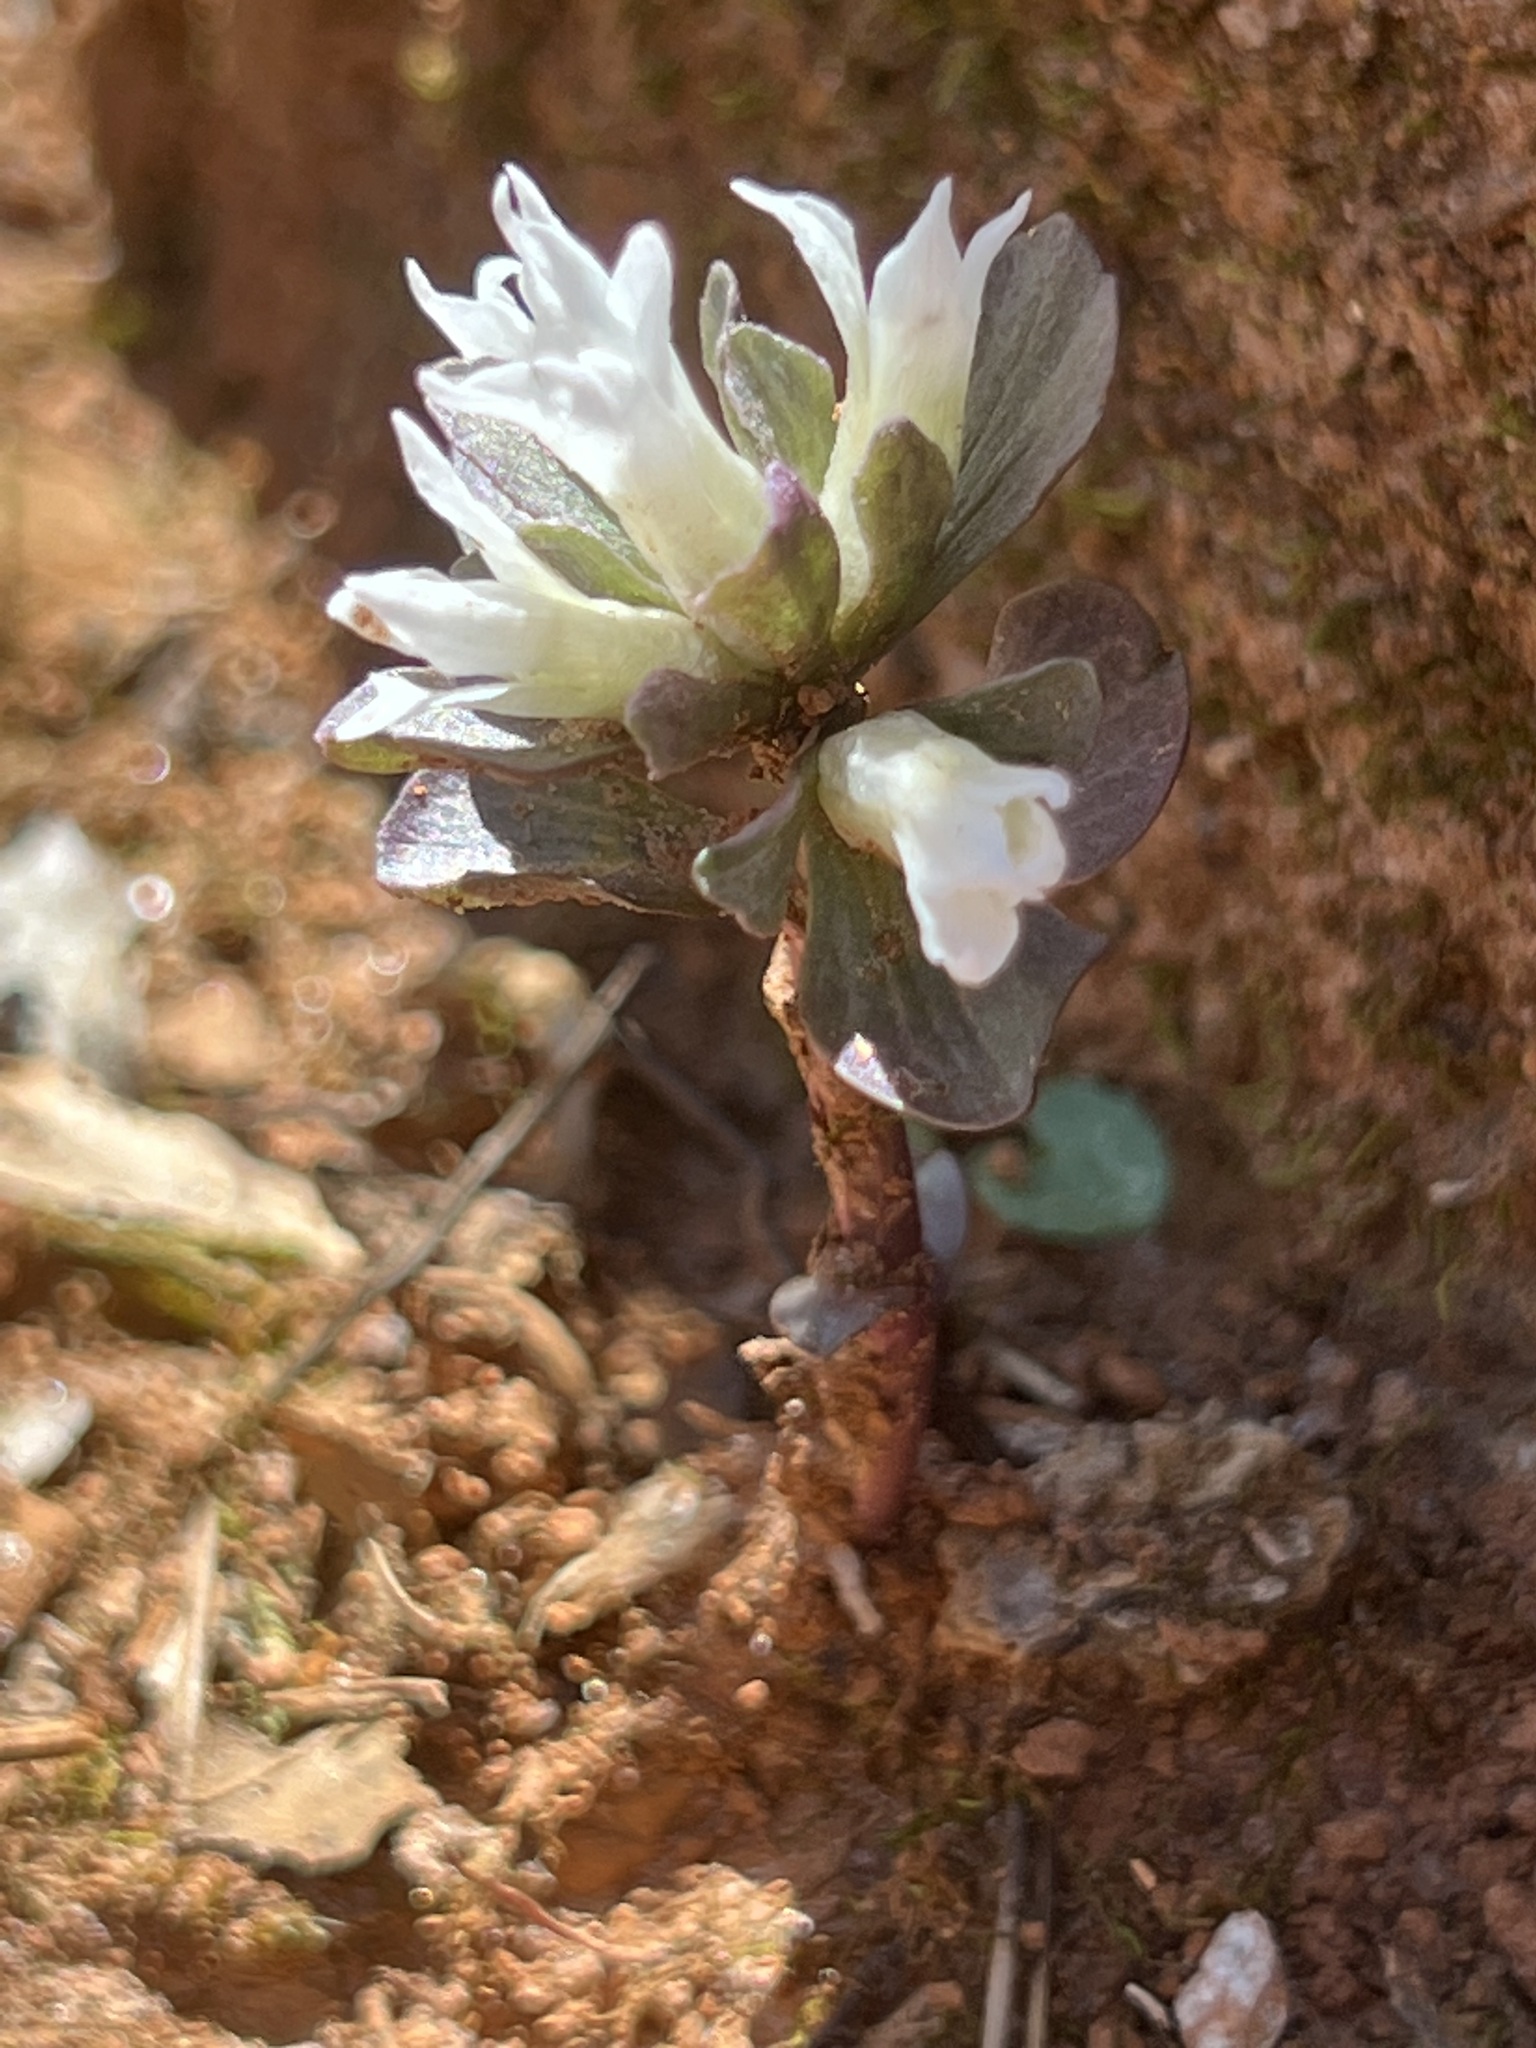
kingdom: Plantae
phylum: Tracheophyta
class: Magnoliopsida
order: Gentianales
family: Gentianaceae
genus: Obolaria
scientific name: Obolaria virginica
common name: Pennywort
